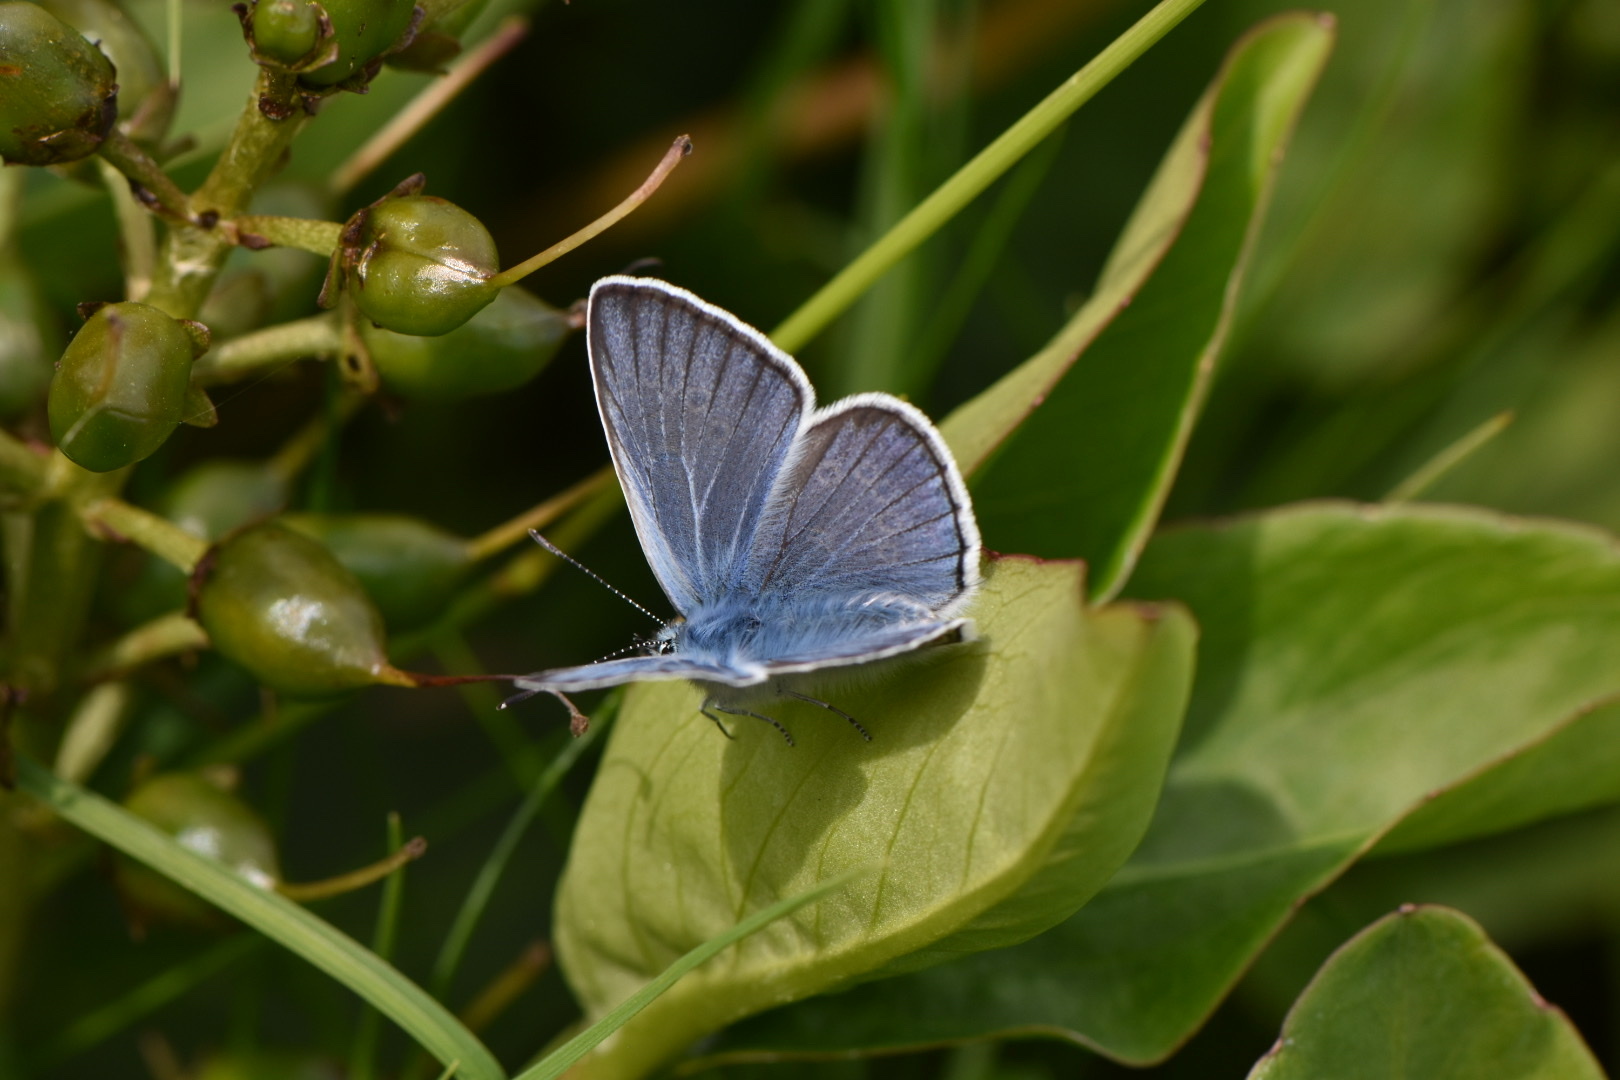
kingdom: Animalia
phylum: Arthropoda
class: Insecta
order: Lepidoptera
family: Lycaenidae
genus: Plebejus
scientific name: Plebejus amanda
